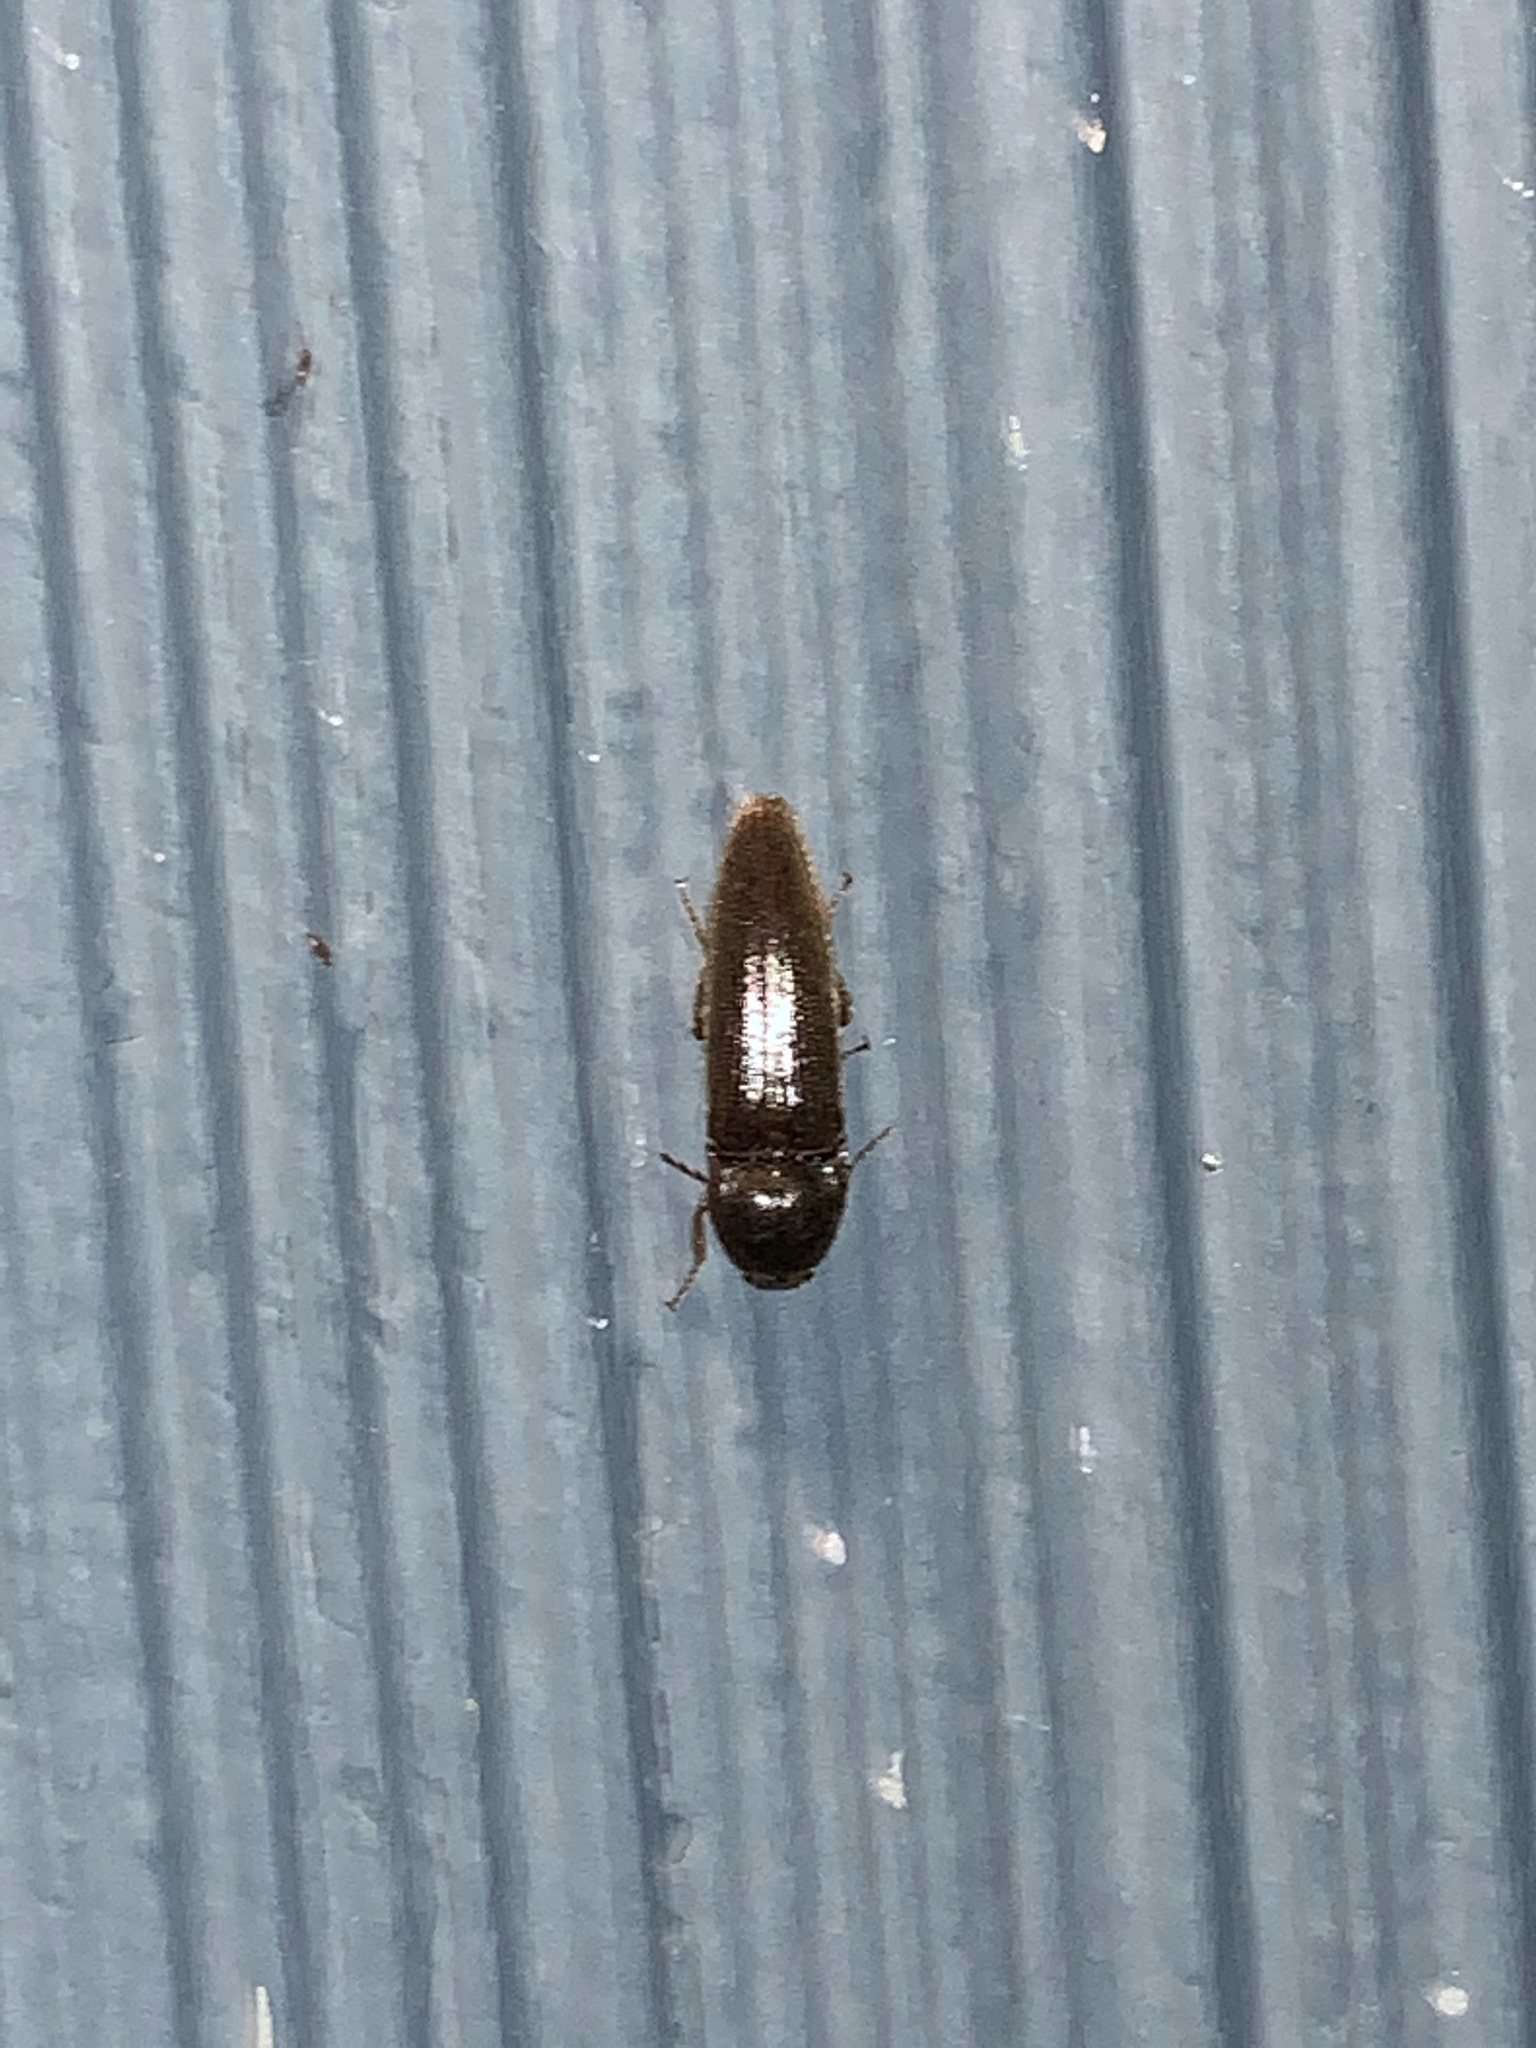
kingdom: Animalia
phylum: Arthropoda
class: Insecta
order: Coleoptera
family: Elateridae
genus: Melanotus
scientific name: Melanotus
